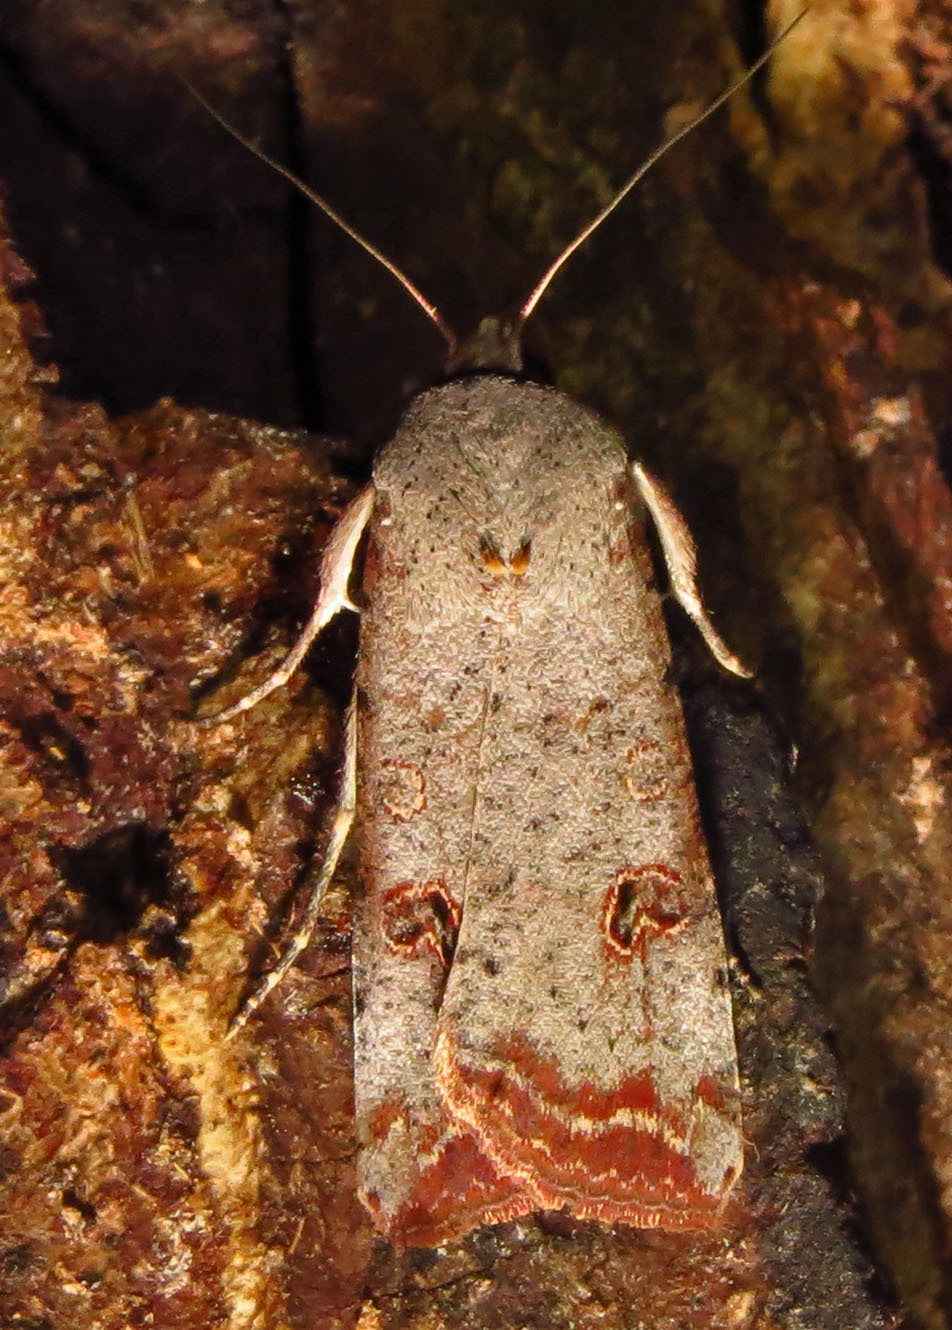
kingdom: Animalia
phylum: Arthropoda
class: Insecta
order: Lepidoptera
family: Noctuidae
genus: Anicla
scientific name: Anicla infecta
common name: Green cutworm
